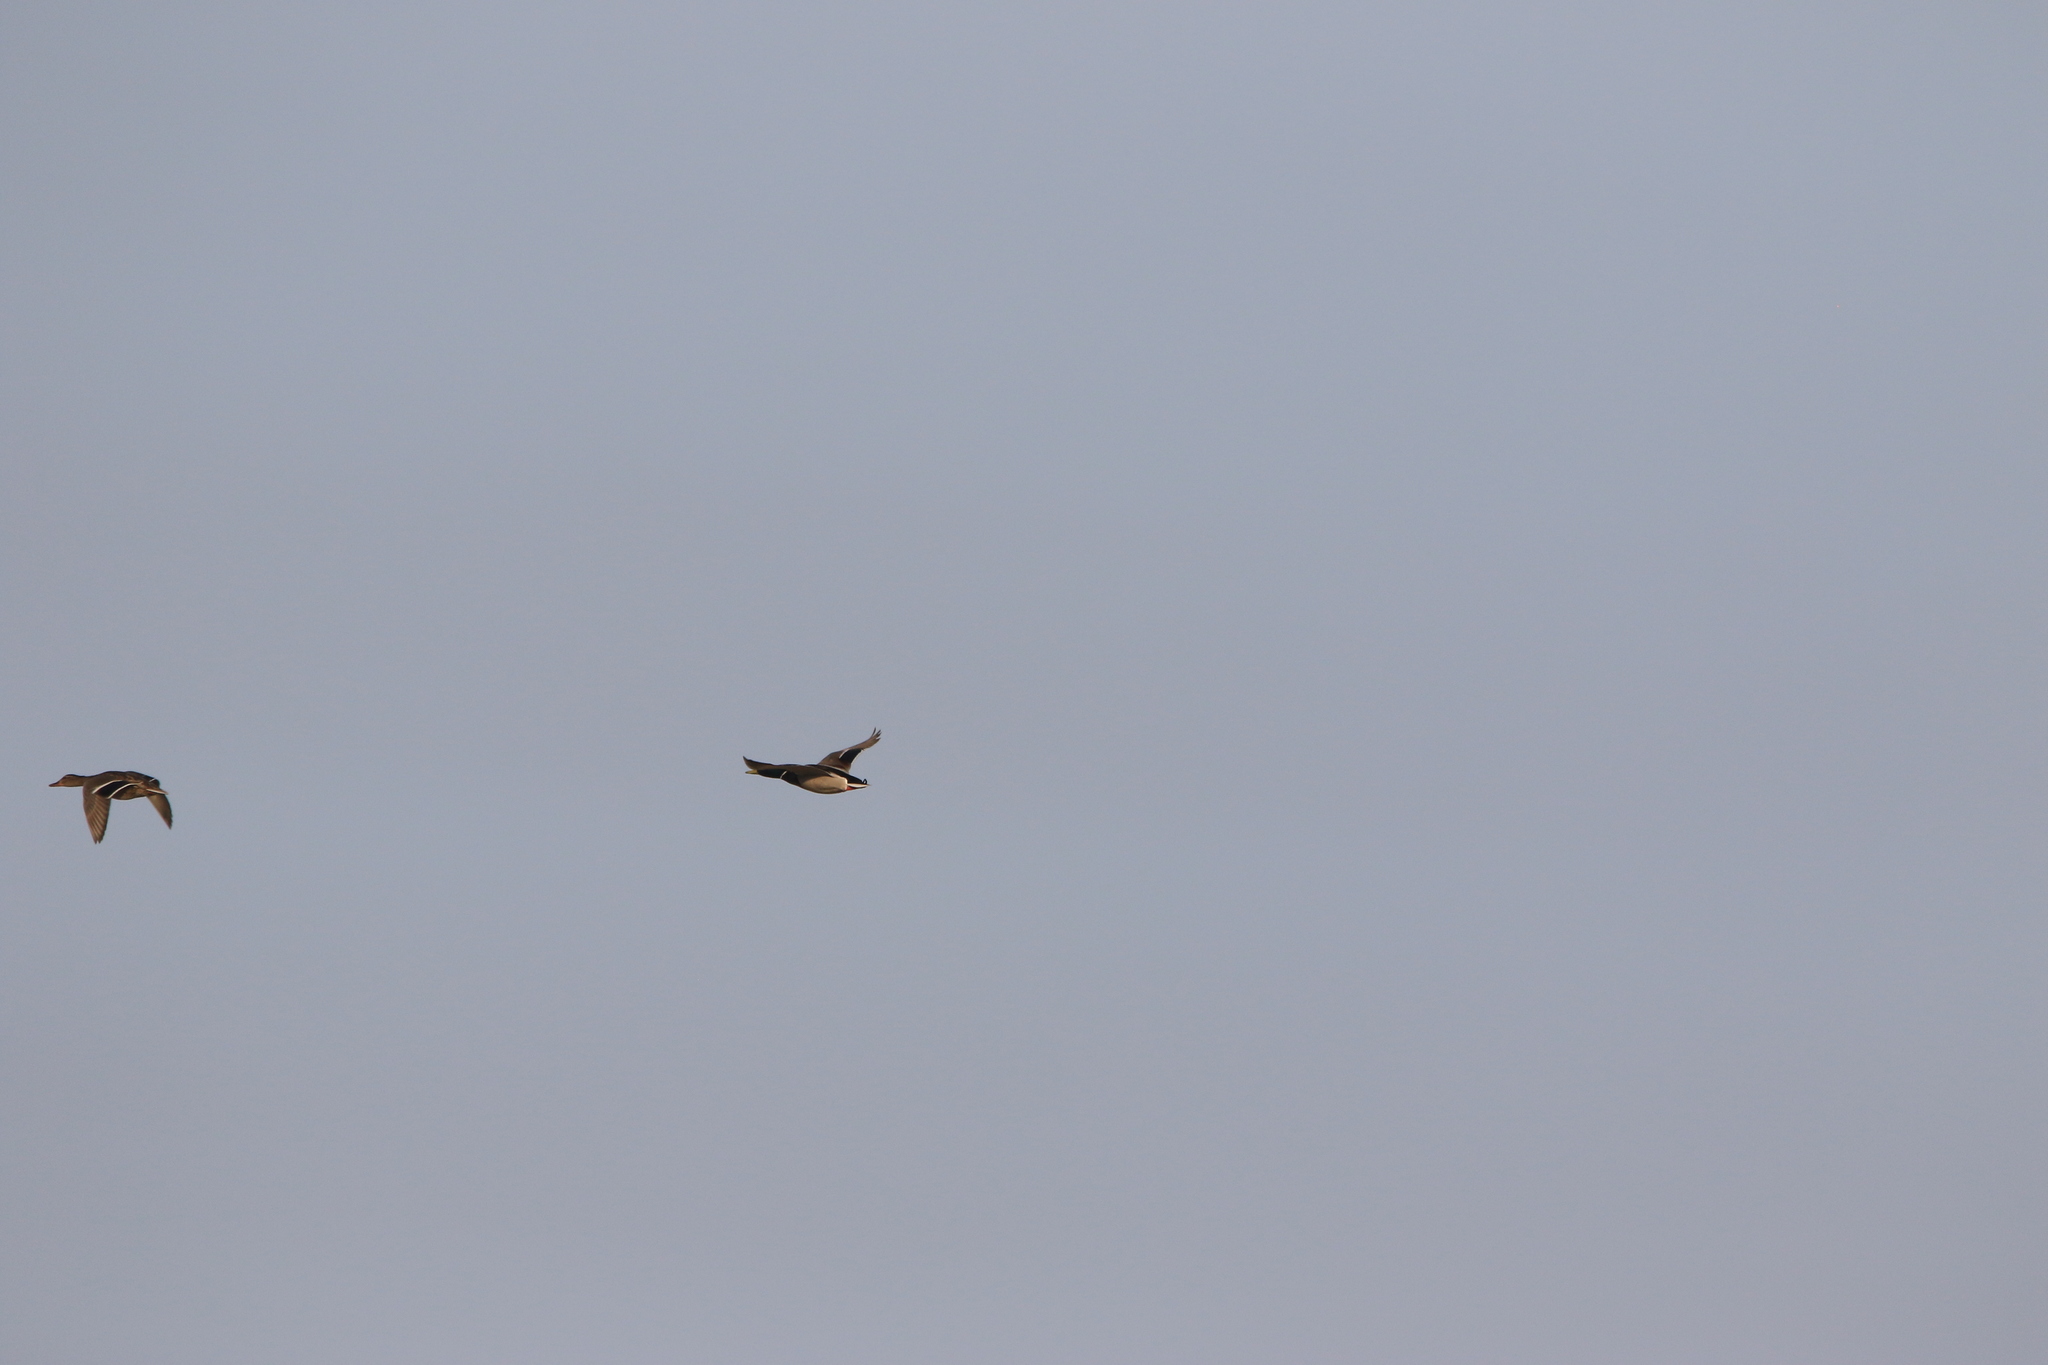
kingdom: Animalia
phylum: Chordata
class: Aves
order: Anseriformes
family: Anatidae
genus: Anas
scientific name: Anas platyrhynchos
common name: Mallard
